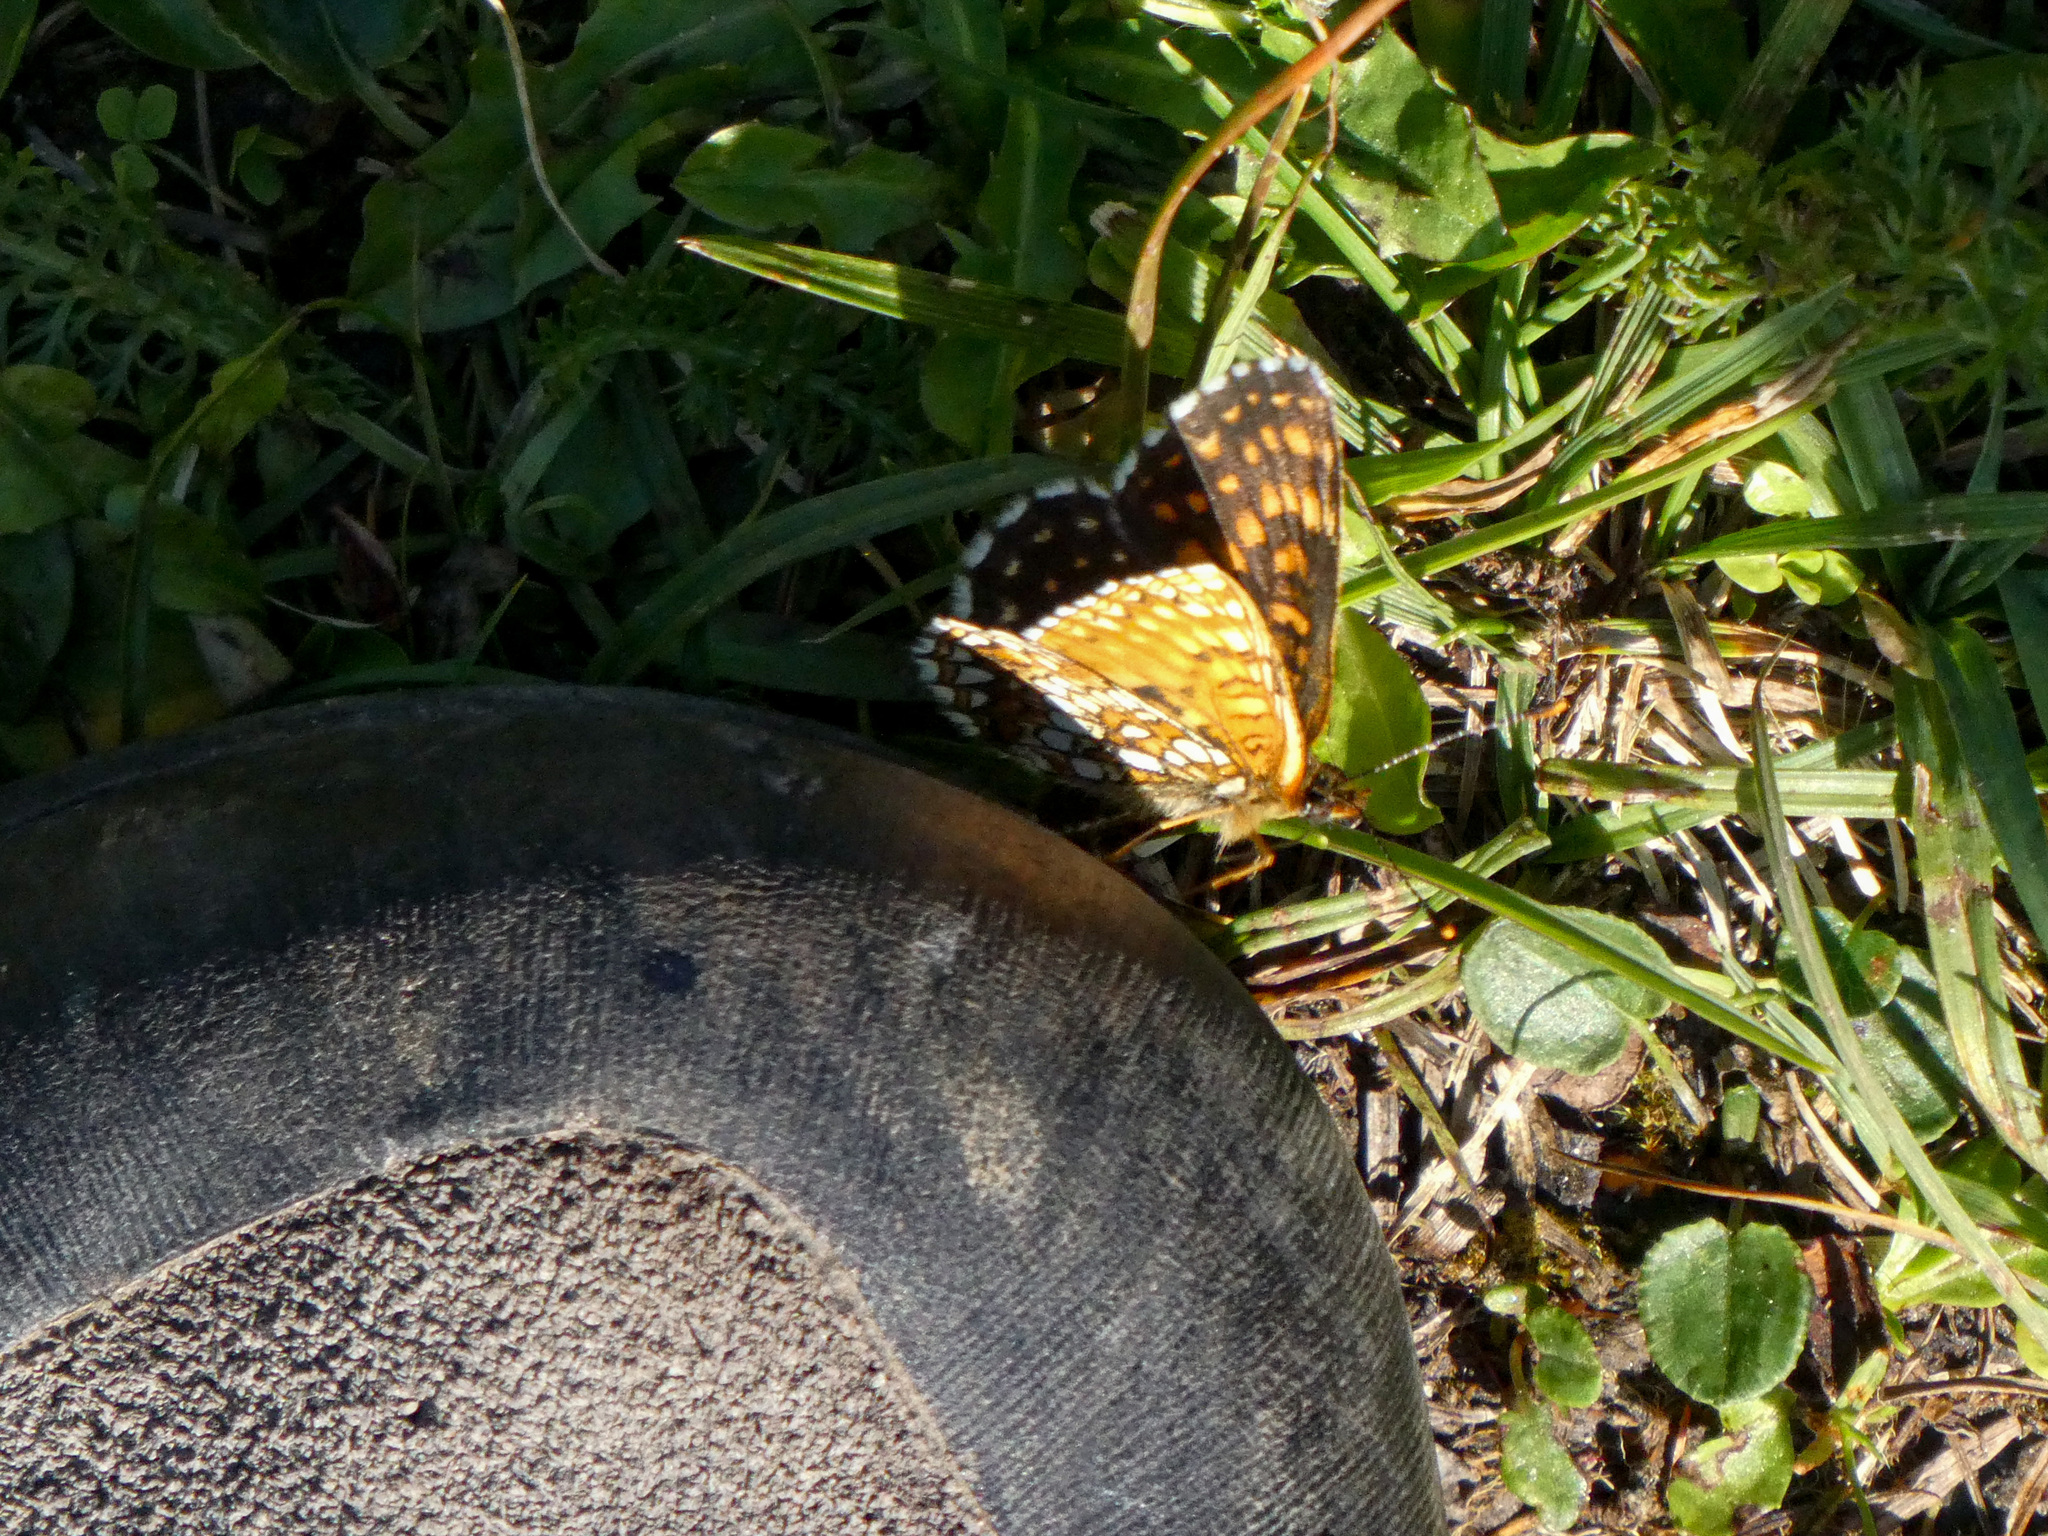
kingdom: Animalia
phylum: Arthropoda
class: Insecta
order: Lepidoptera
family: Nymphalidae
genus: Melitaea
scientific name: Melitaea diamina
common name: False heath fritillary
